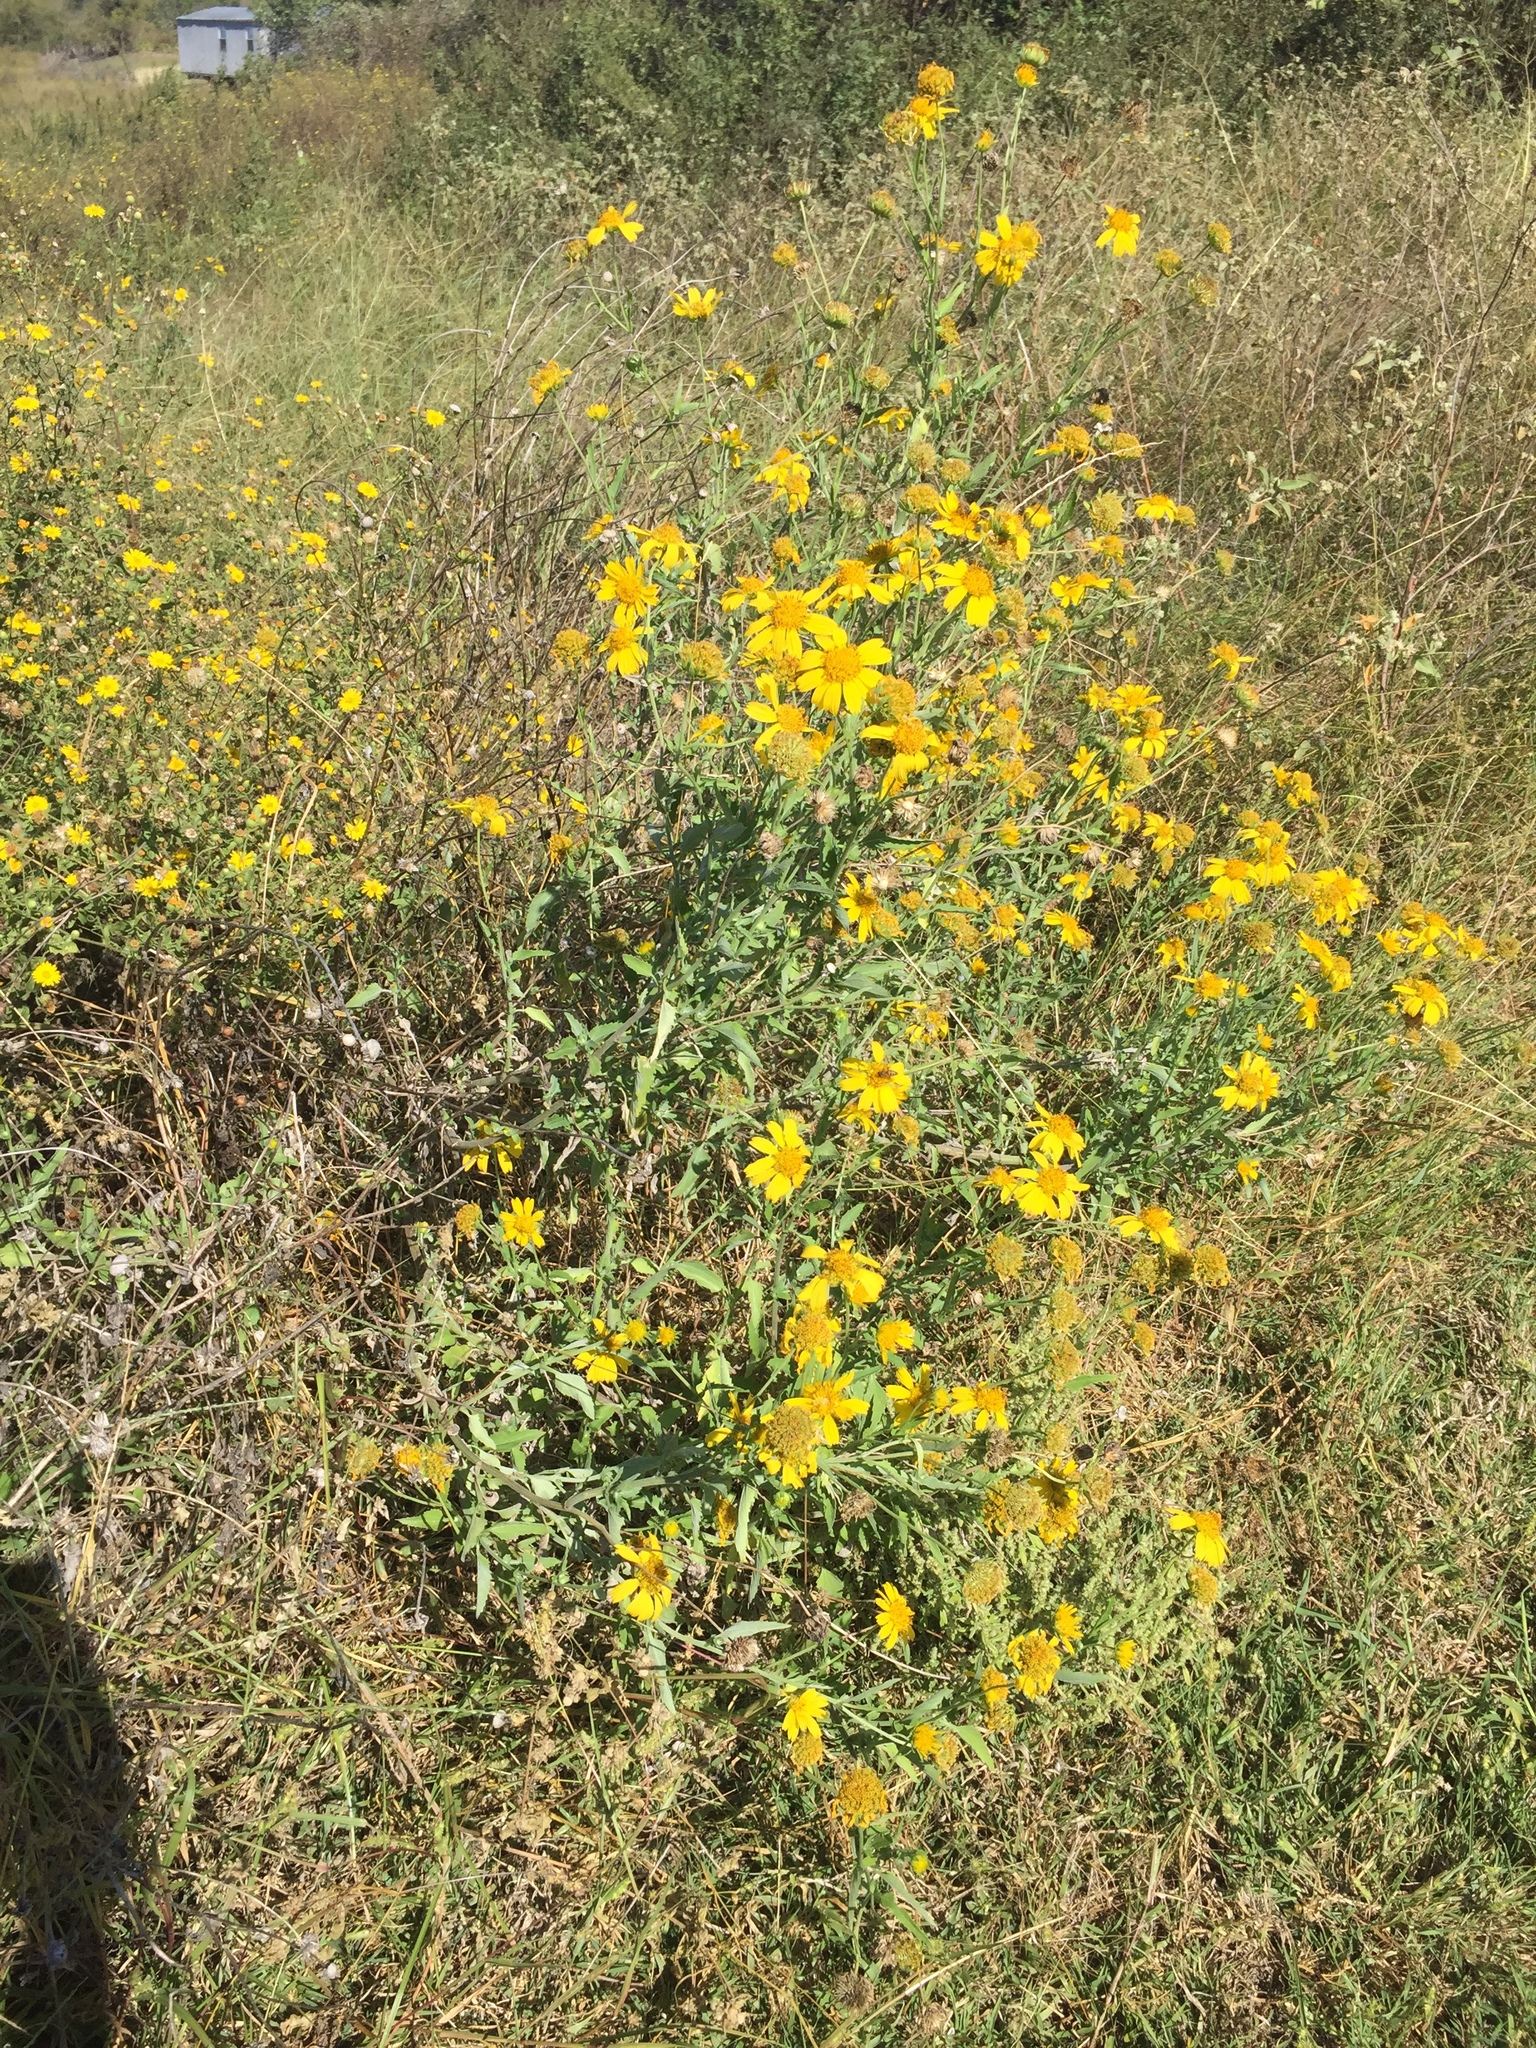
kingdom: Plantae
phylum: Tracheophyta
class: Magnoliopsida
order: Asterales
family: Asteraceae
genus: Verbesina
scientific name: Verbesina encelioides
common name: Golden crownbeard
